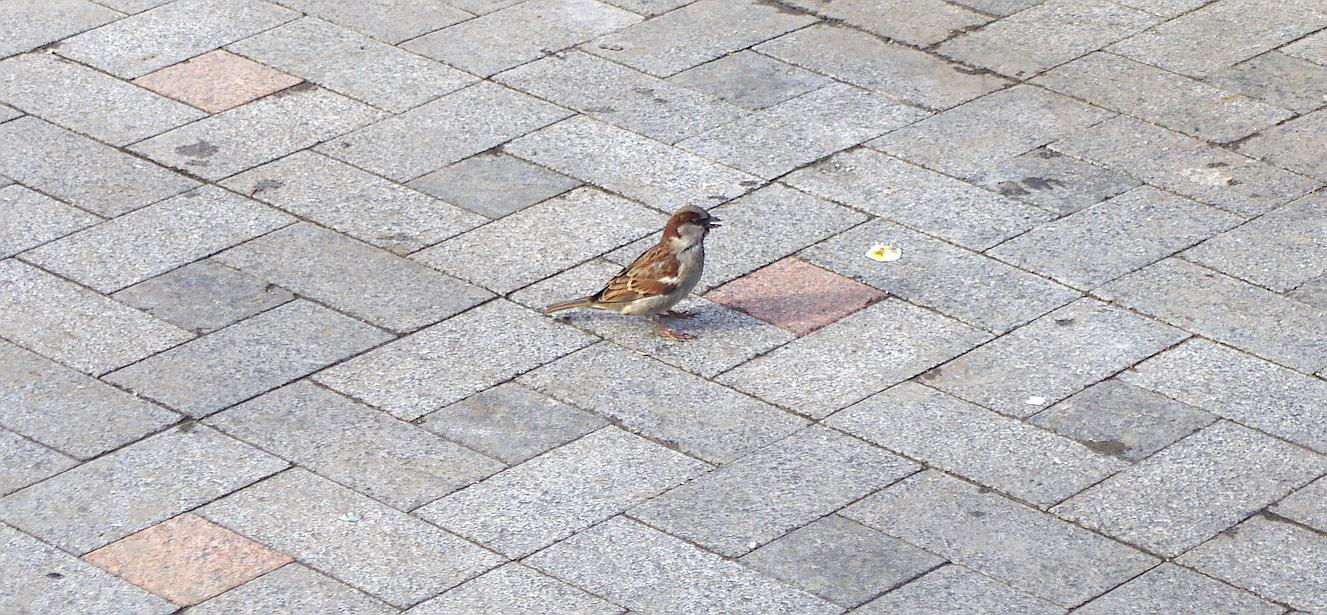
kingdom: Animalia
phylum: Chordata
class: Aves
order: Passeriformes
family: Passeridae
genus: Passer
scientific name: Passer domesticus
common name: House sparrow
